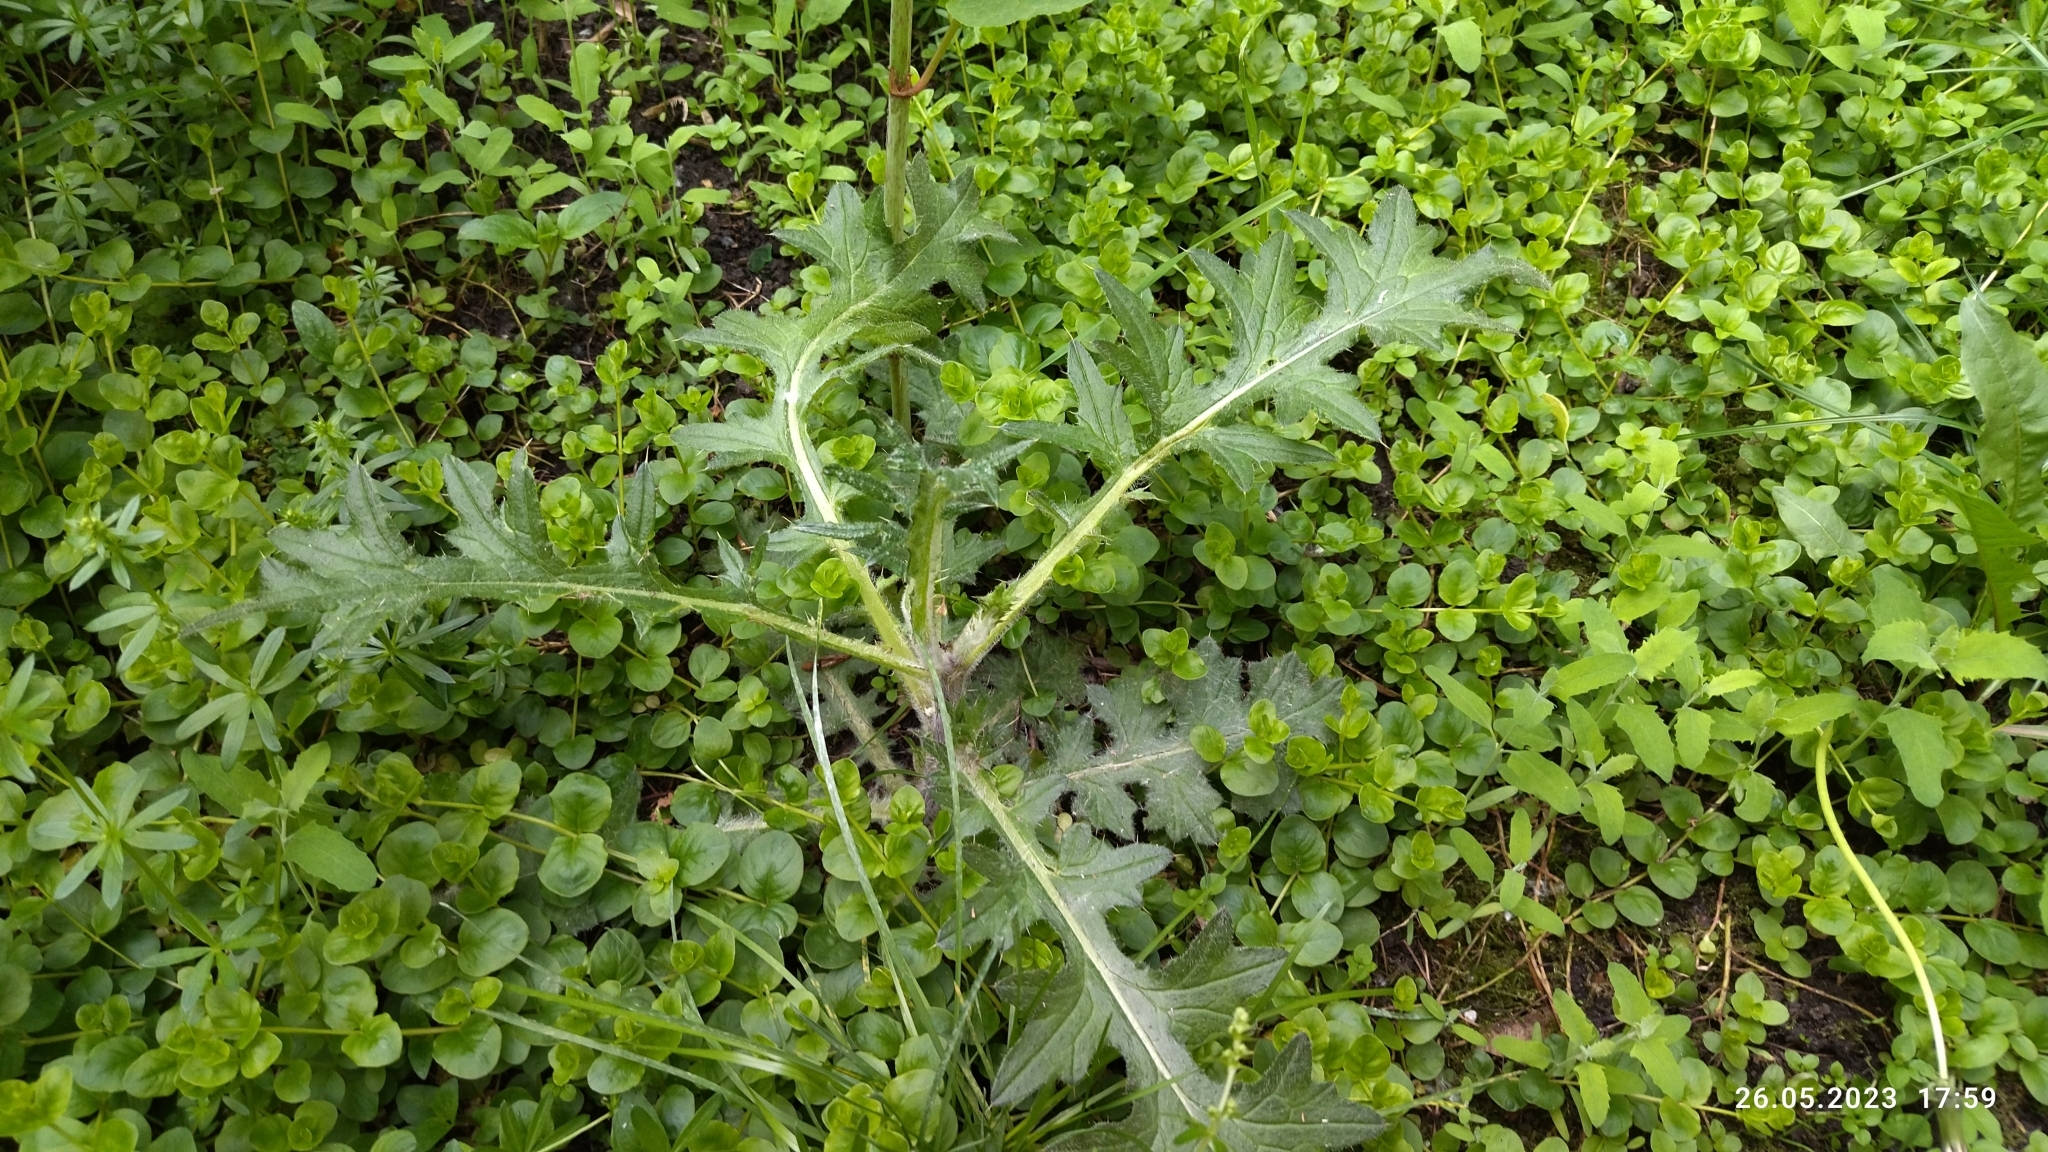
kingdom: Plantae
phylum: Tracheophyta
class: Magnoliopsida
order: Asterales
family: Asteraceae
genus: Cirsium
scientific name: Cirsium vulgare
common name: Bull thistle
